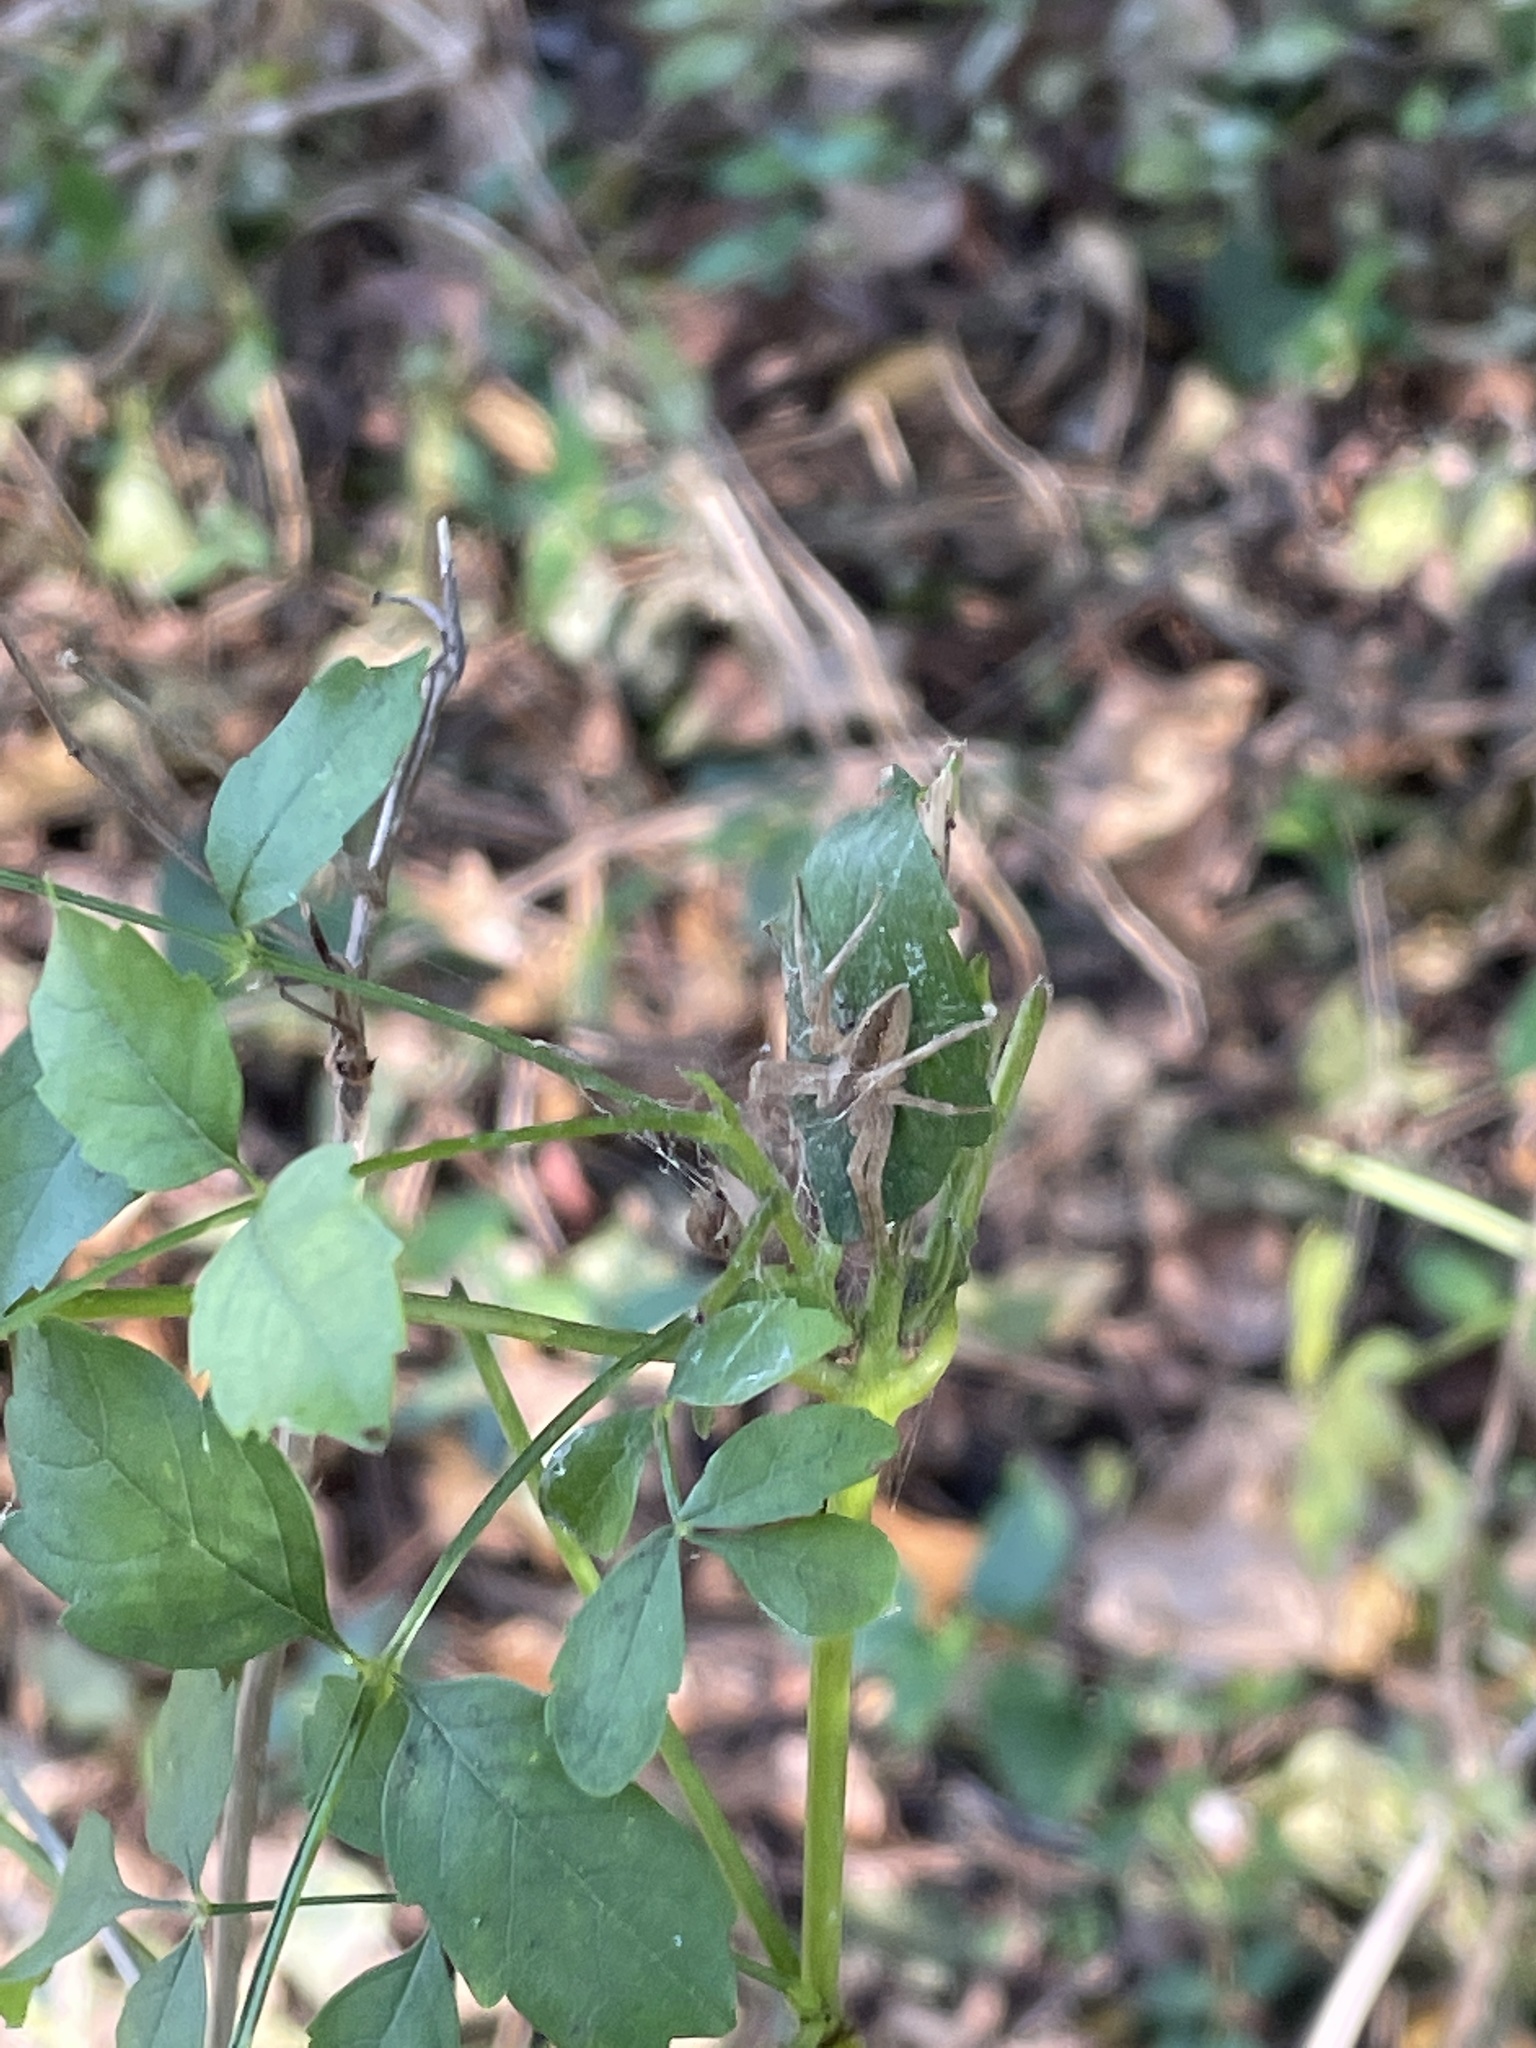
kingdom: Animalia
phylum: Arthropoda
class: Arachnida
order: Araneae
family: Pisauridae
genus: Pisaurina
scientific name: Pisaurina mira
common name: American nursery web spider
